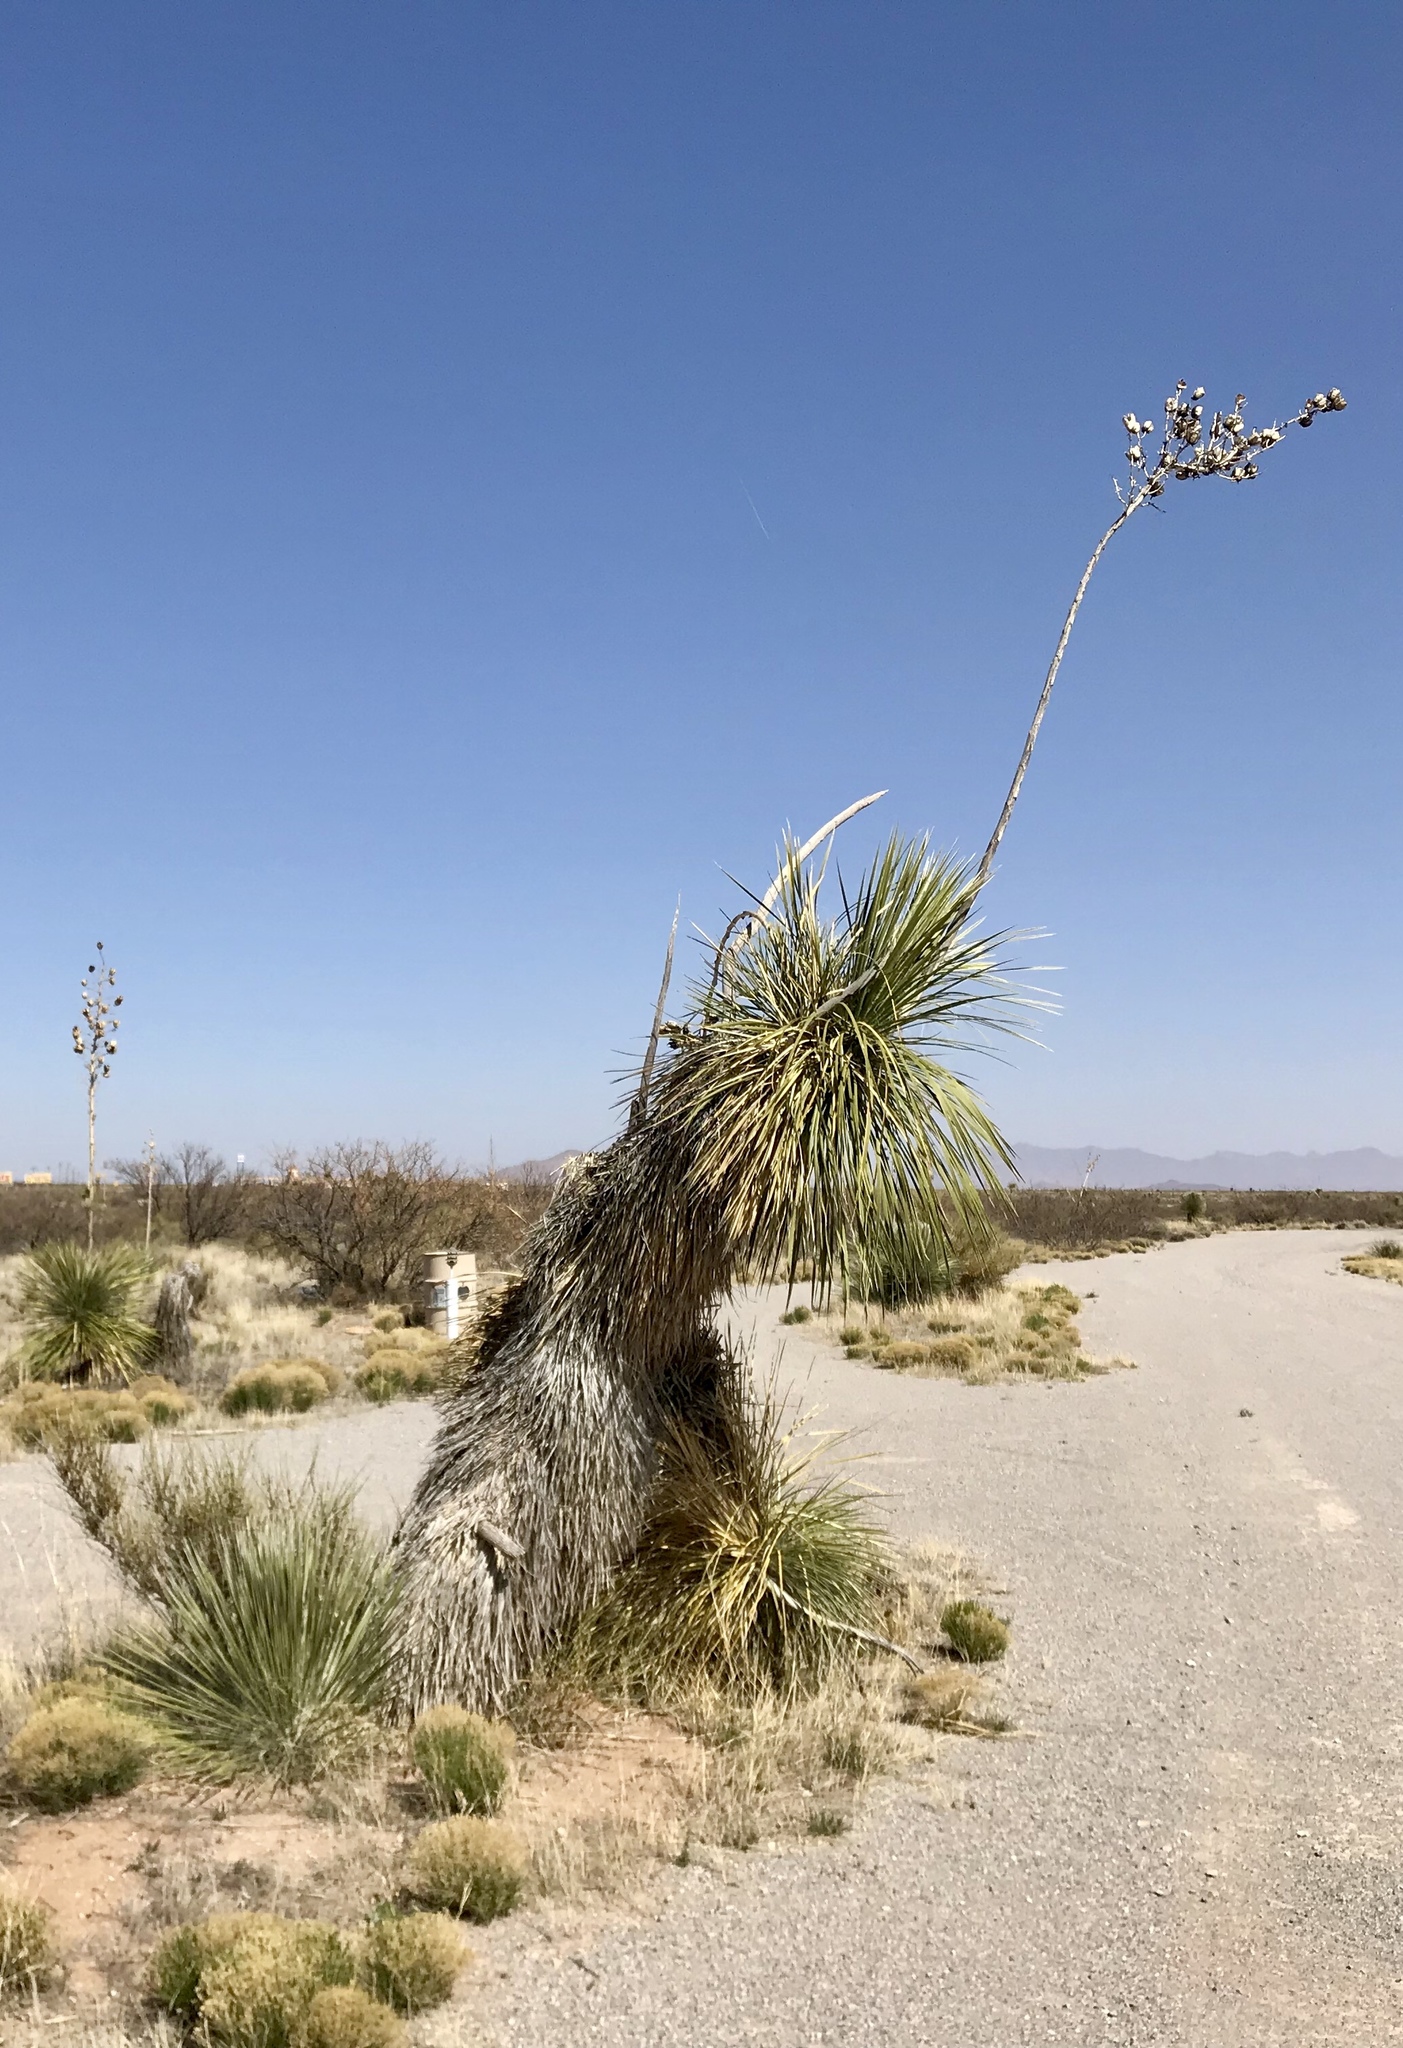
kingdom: Plantae
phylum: Tracheophyta
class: Liliopsida
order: Asparagales
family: Asparagaceae
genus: Yucca
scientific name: Yucca elata
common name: Palmella
